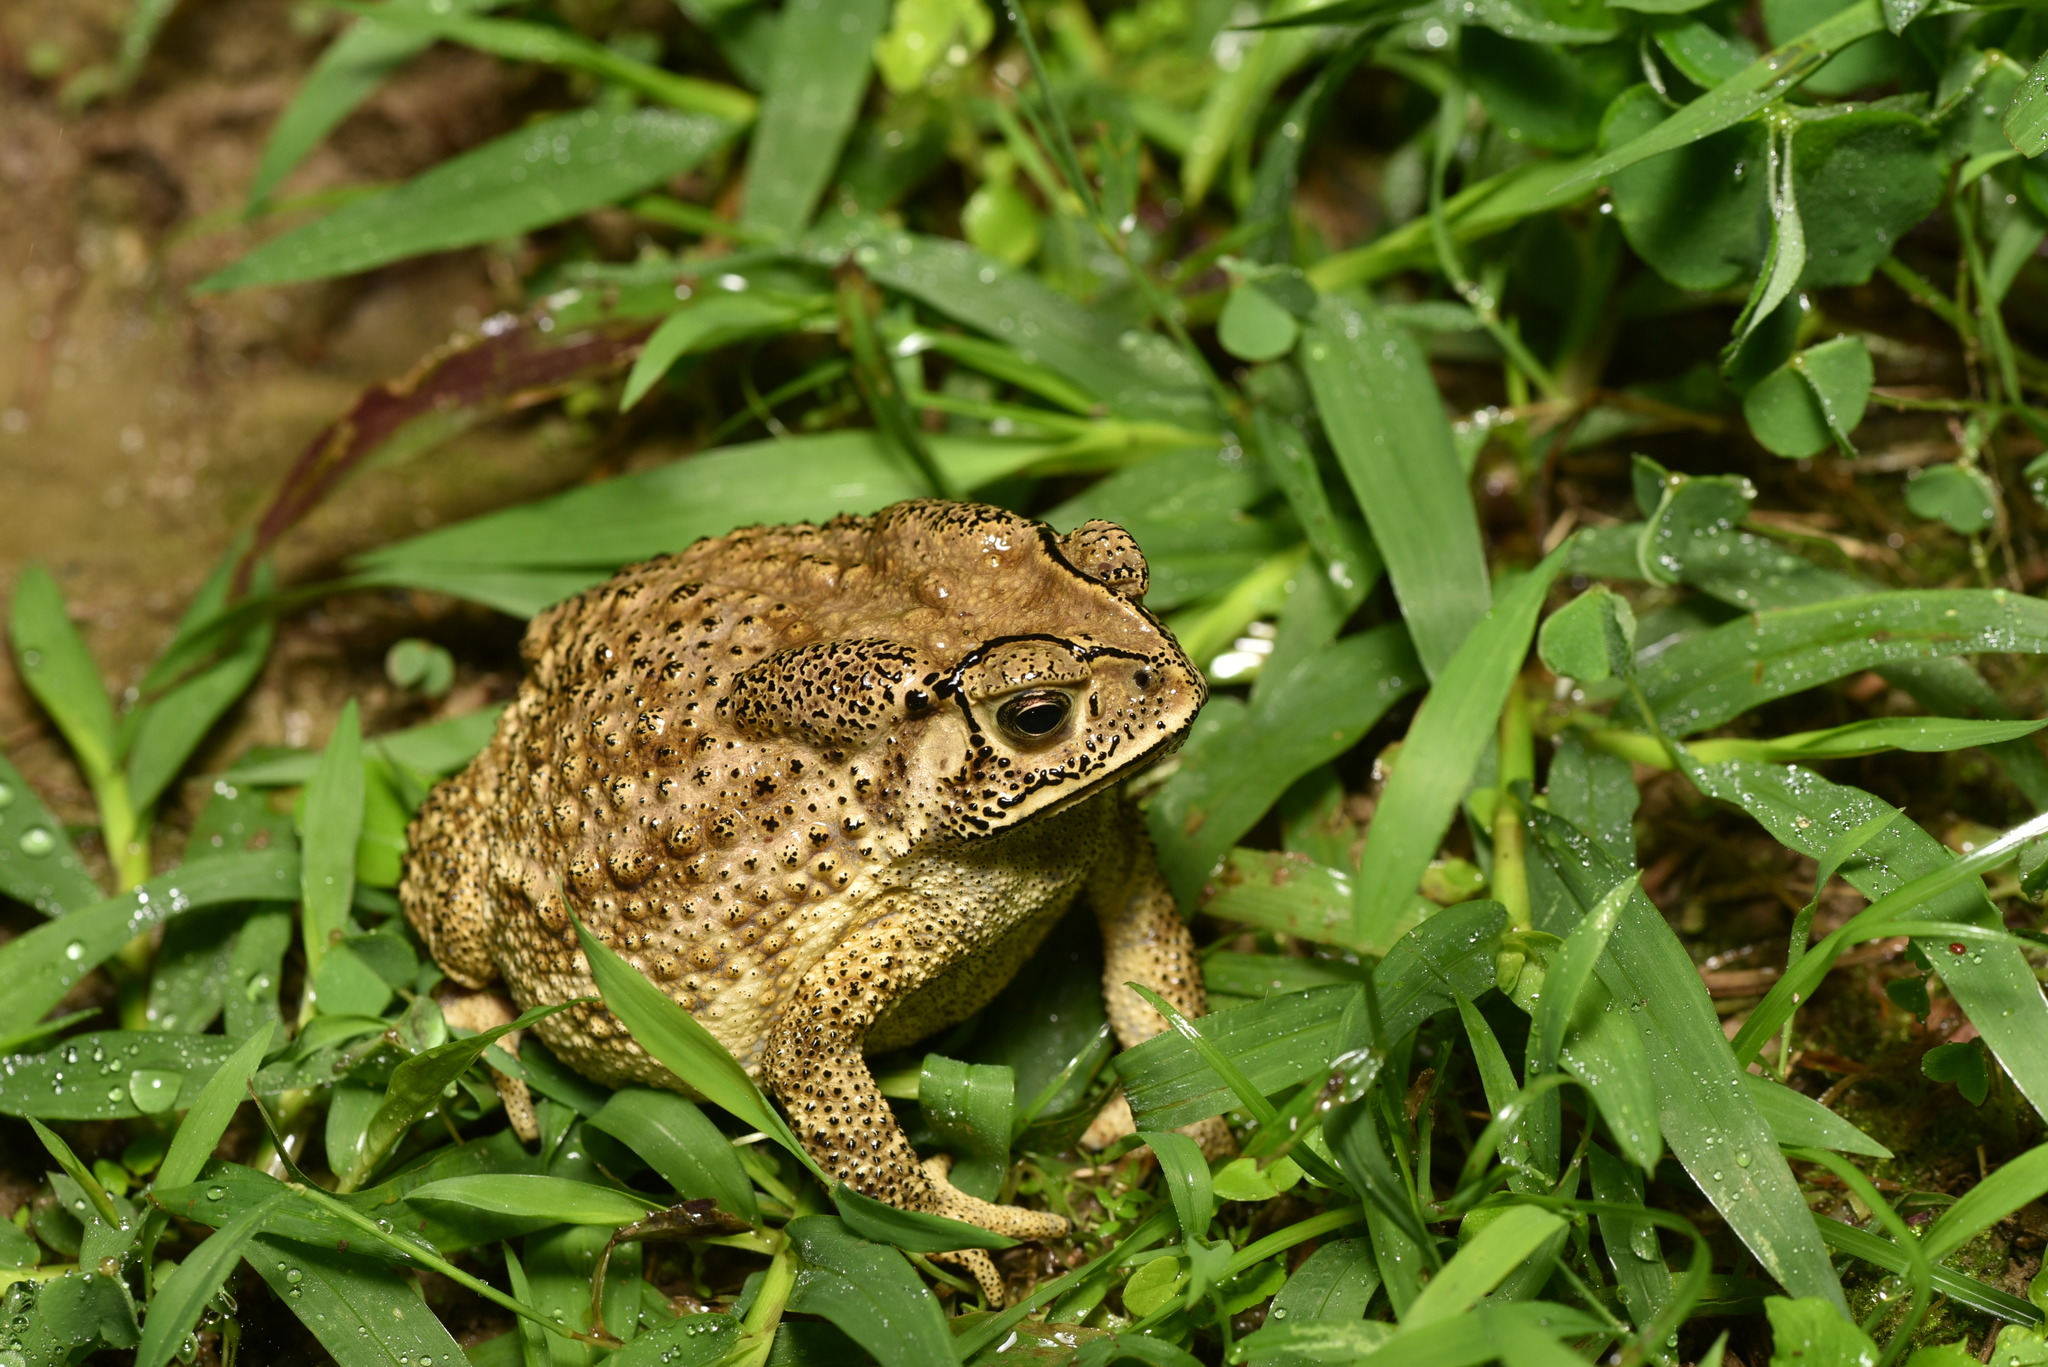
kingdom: Animalia
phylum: Chordata
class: Amphibia
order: Anura
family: Bufonidae
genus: Duttaphrynus
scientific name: Duttaphrynus melanostictus
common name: Common sunda toad
